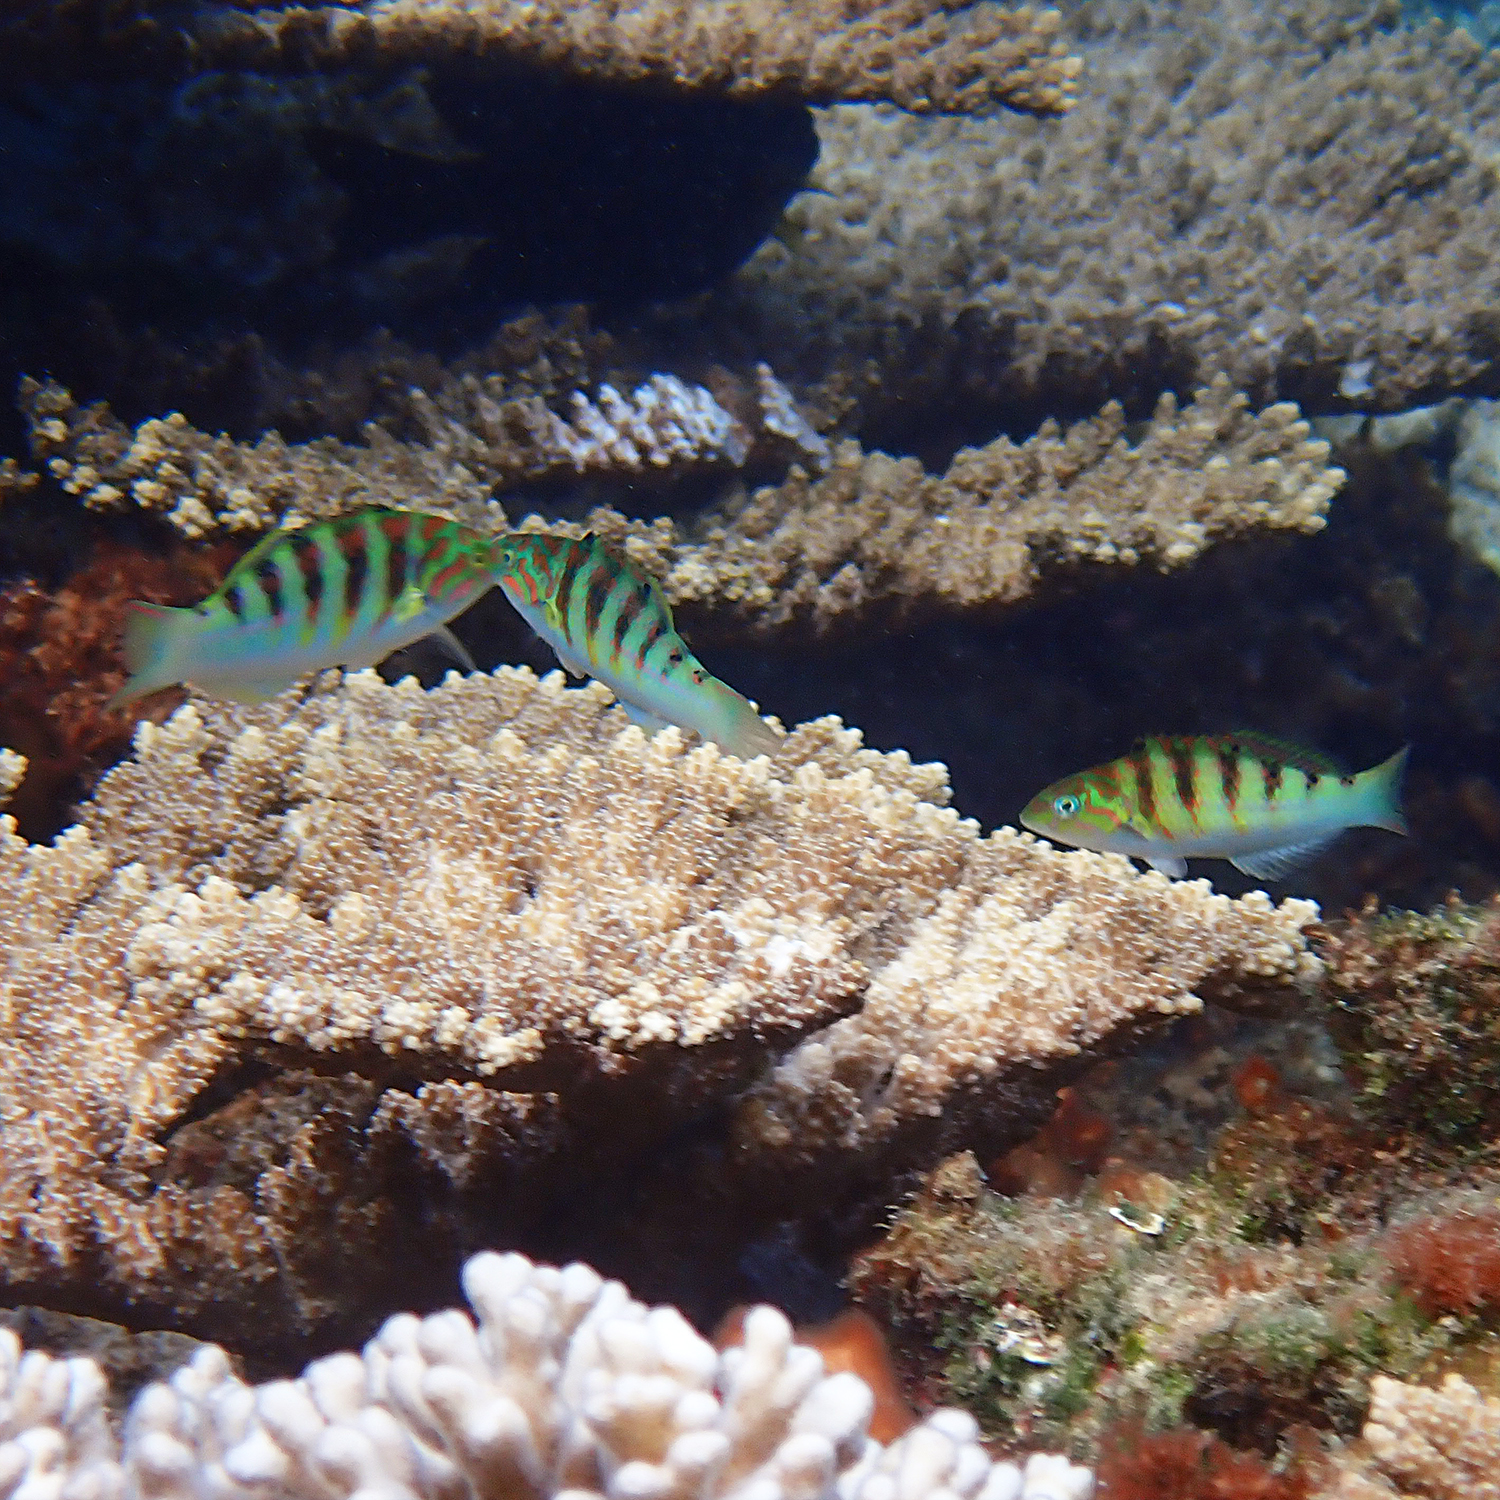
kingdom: Animalia
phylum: Chordata
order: Perciformes
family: Labridae
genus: Thalassoma
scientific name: Thalassoma hardwicke
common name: Sixbar wrasse
